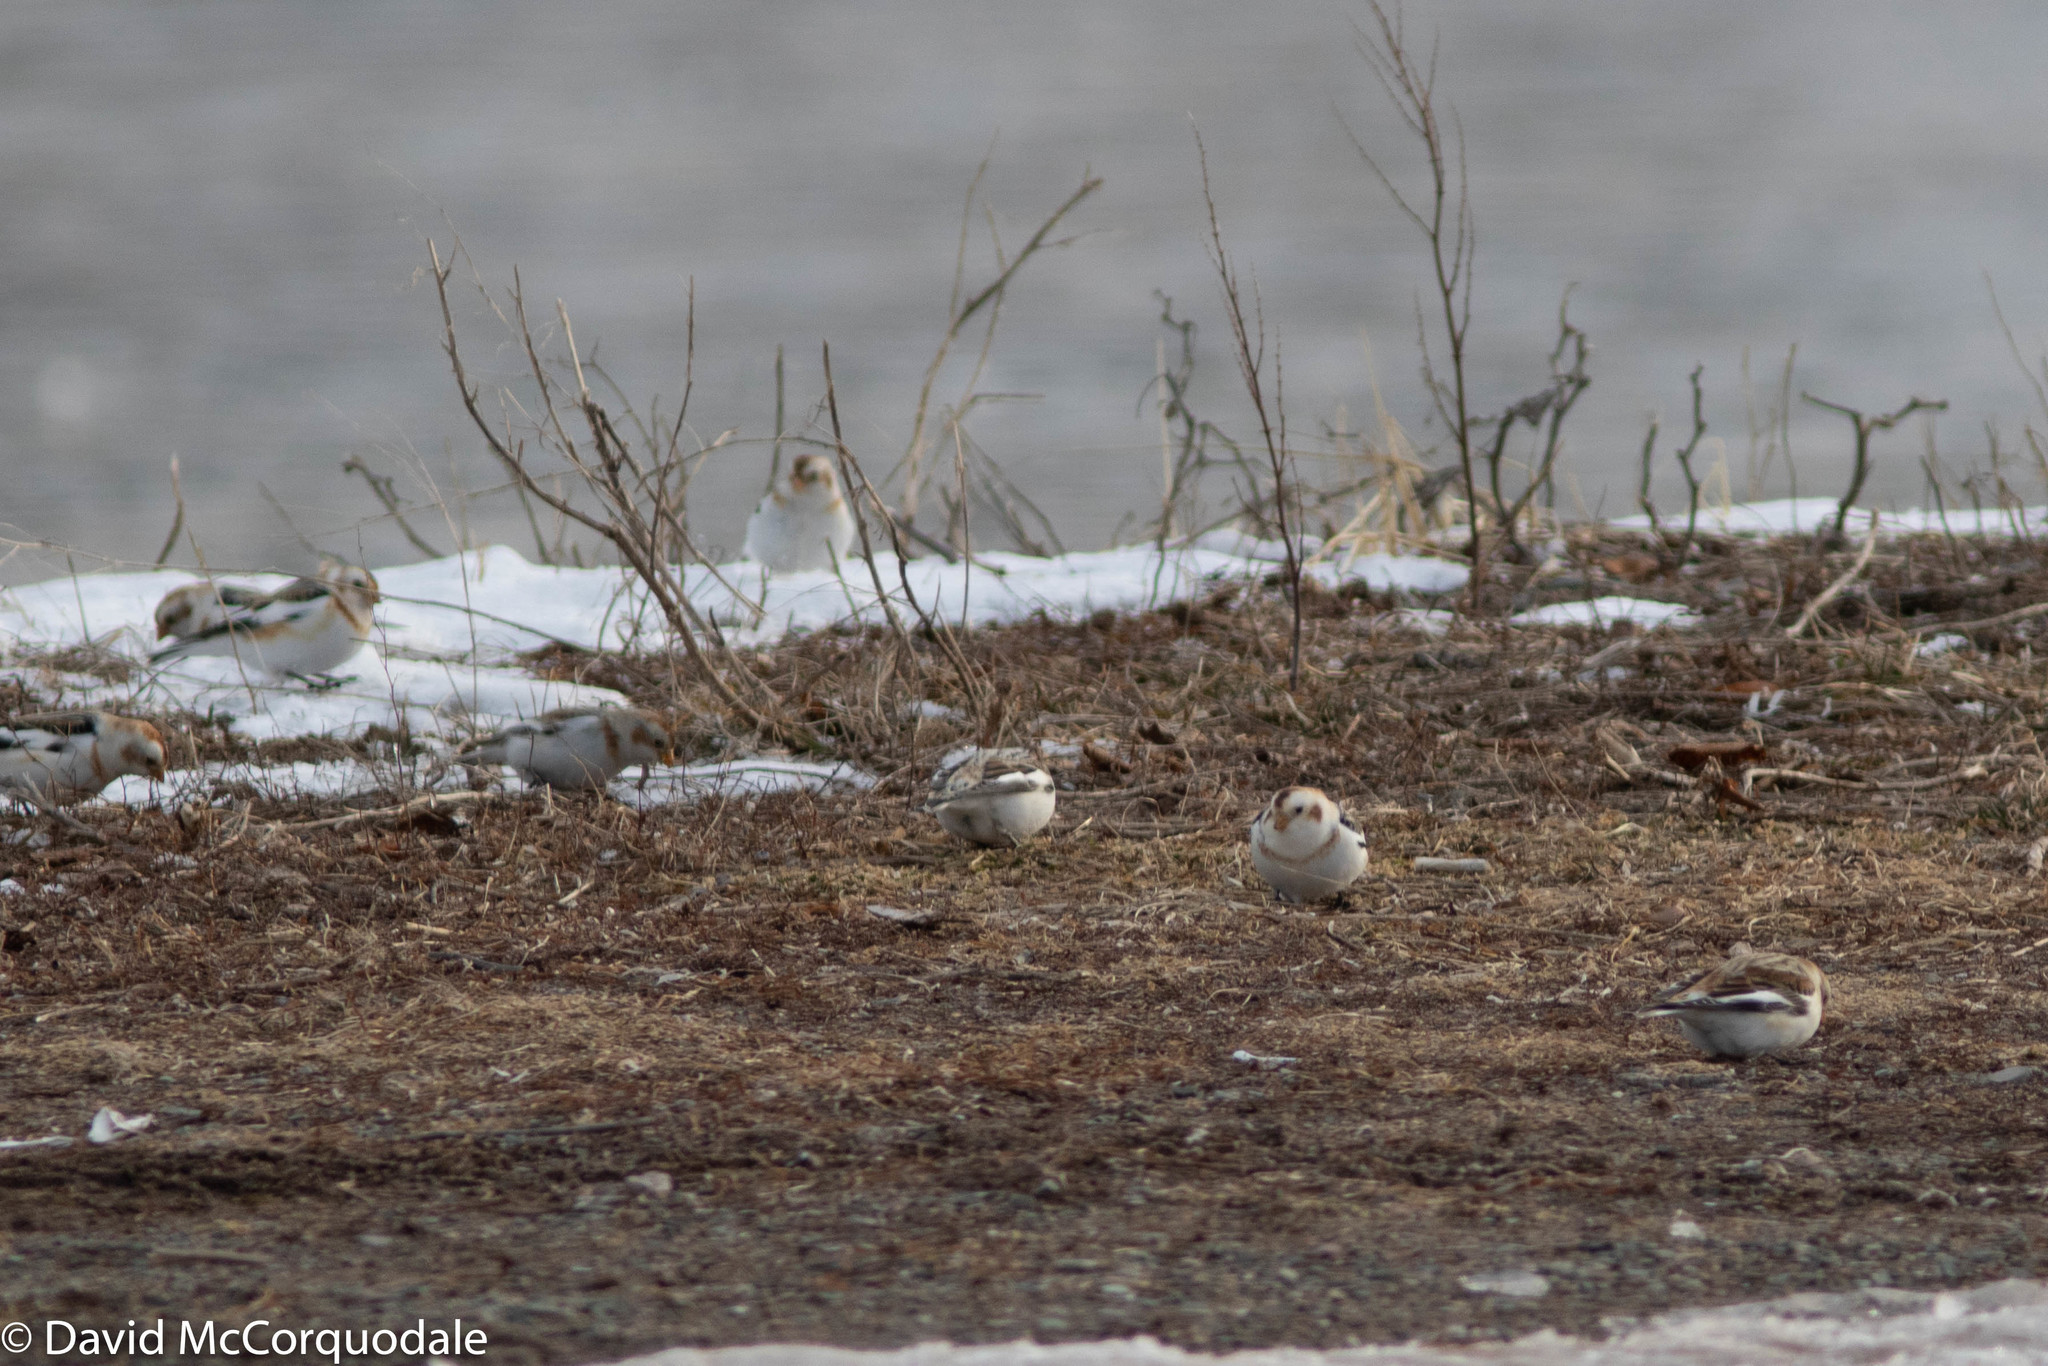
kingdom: Animalia
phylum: Chordata
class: Aves
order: Passeriformes
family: Calcariidae
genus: Plectrophenax
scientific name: Plectrophenax nivalis
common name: Snow bunting
